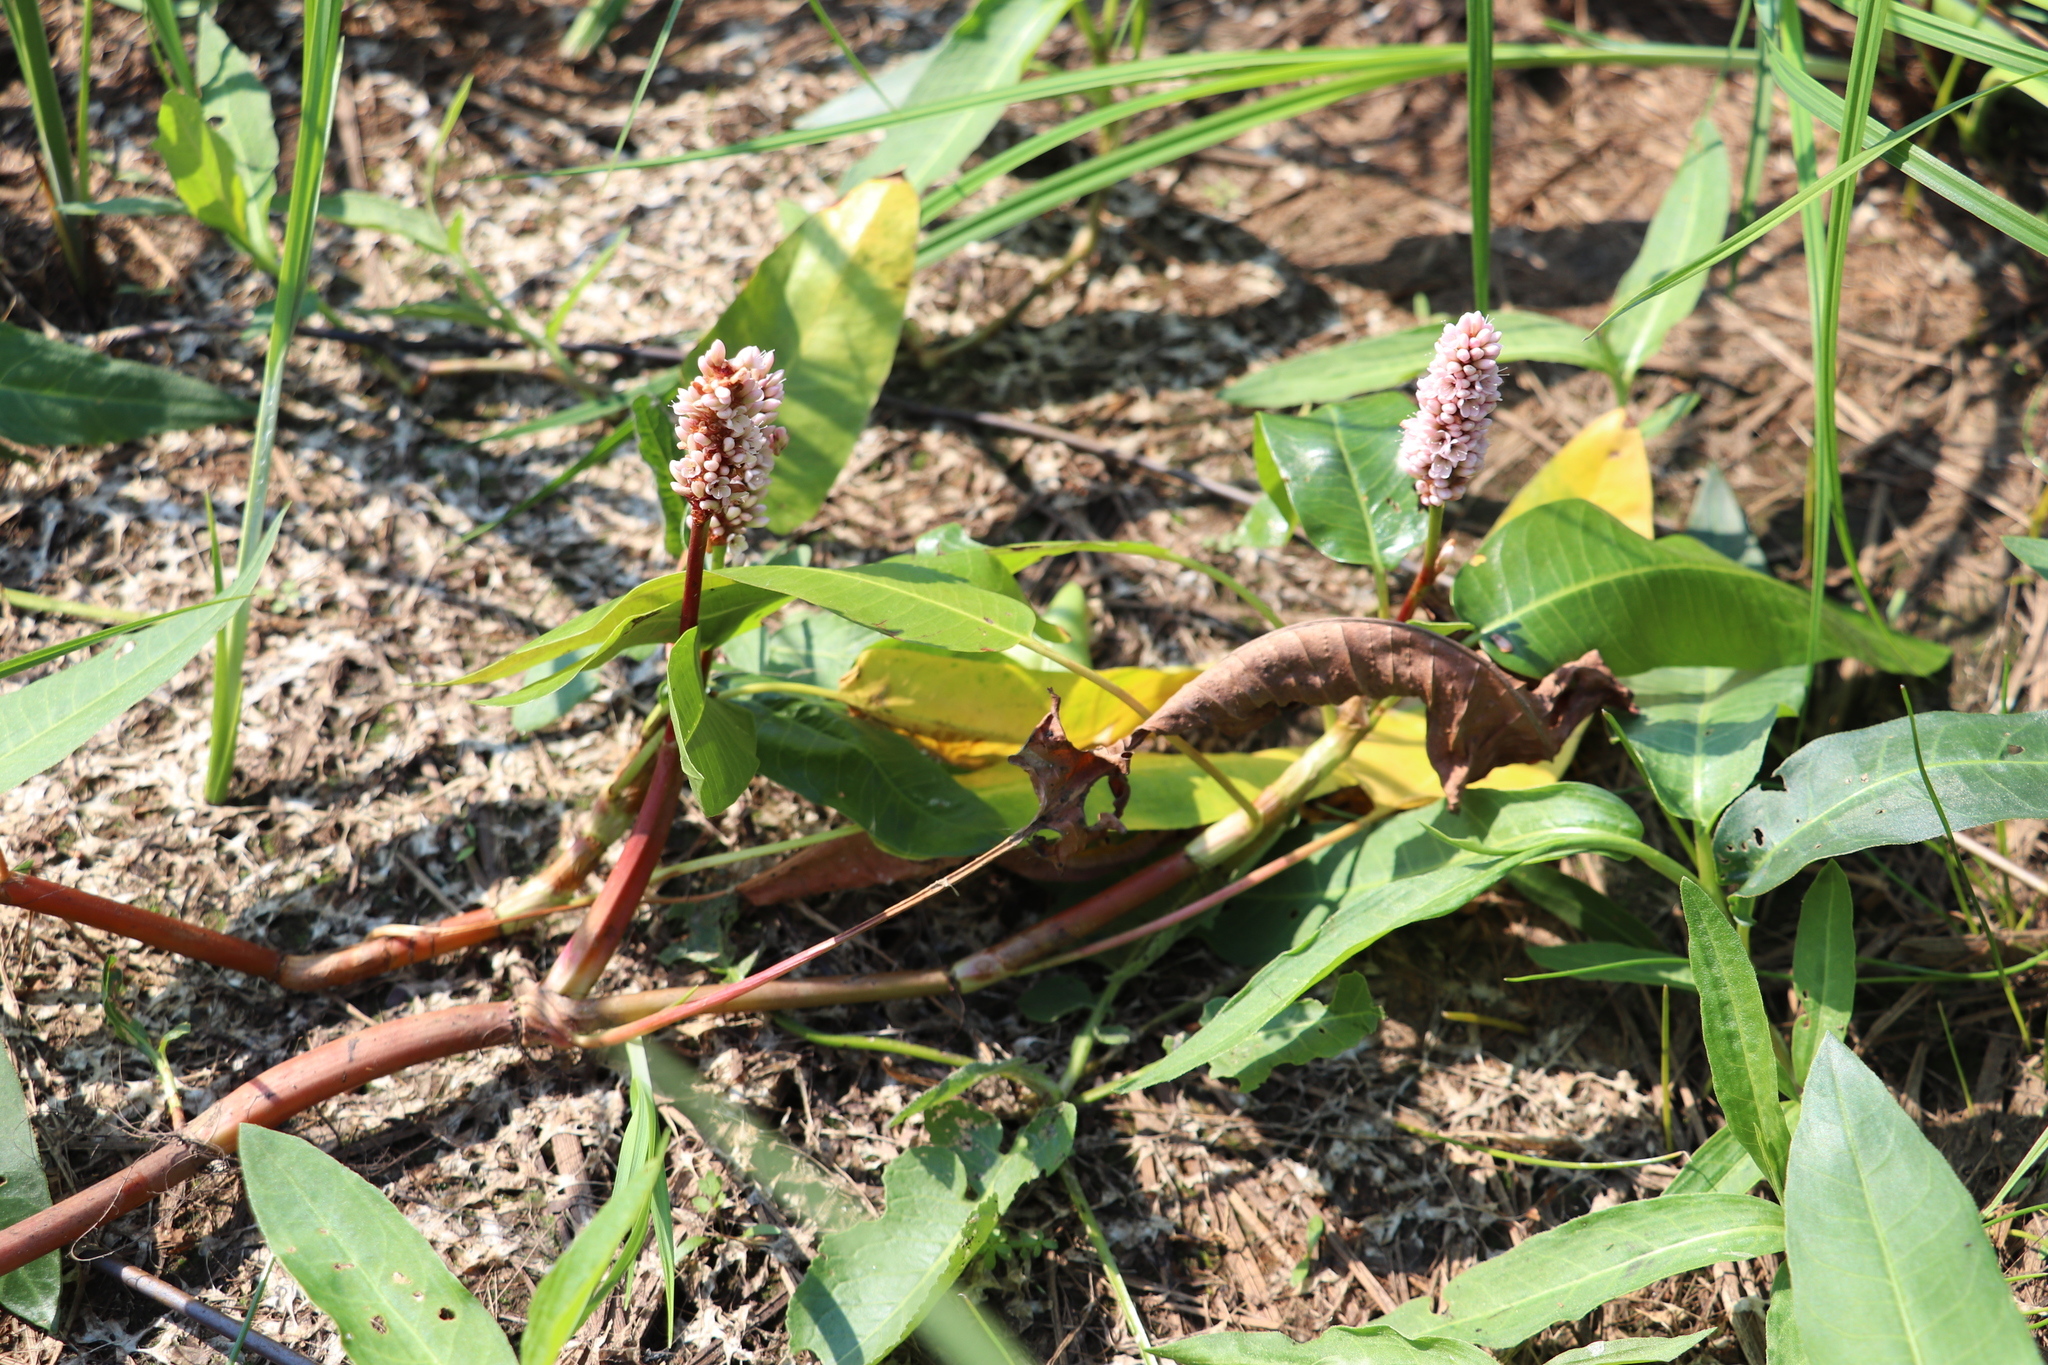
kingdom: Plantae
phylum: Tracheophyta
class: Magnoliopsida
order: Caryophyllales
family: Polygonaceae
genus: Persicaria
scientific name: Persicaria amphibia
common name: Amphibious bistort
